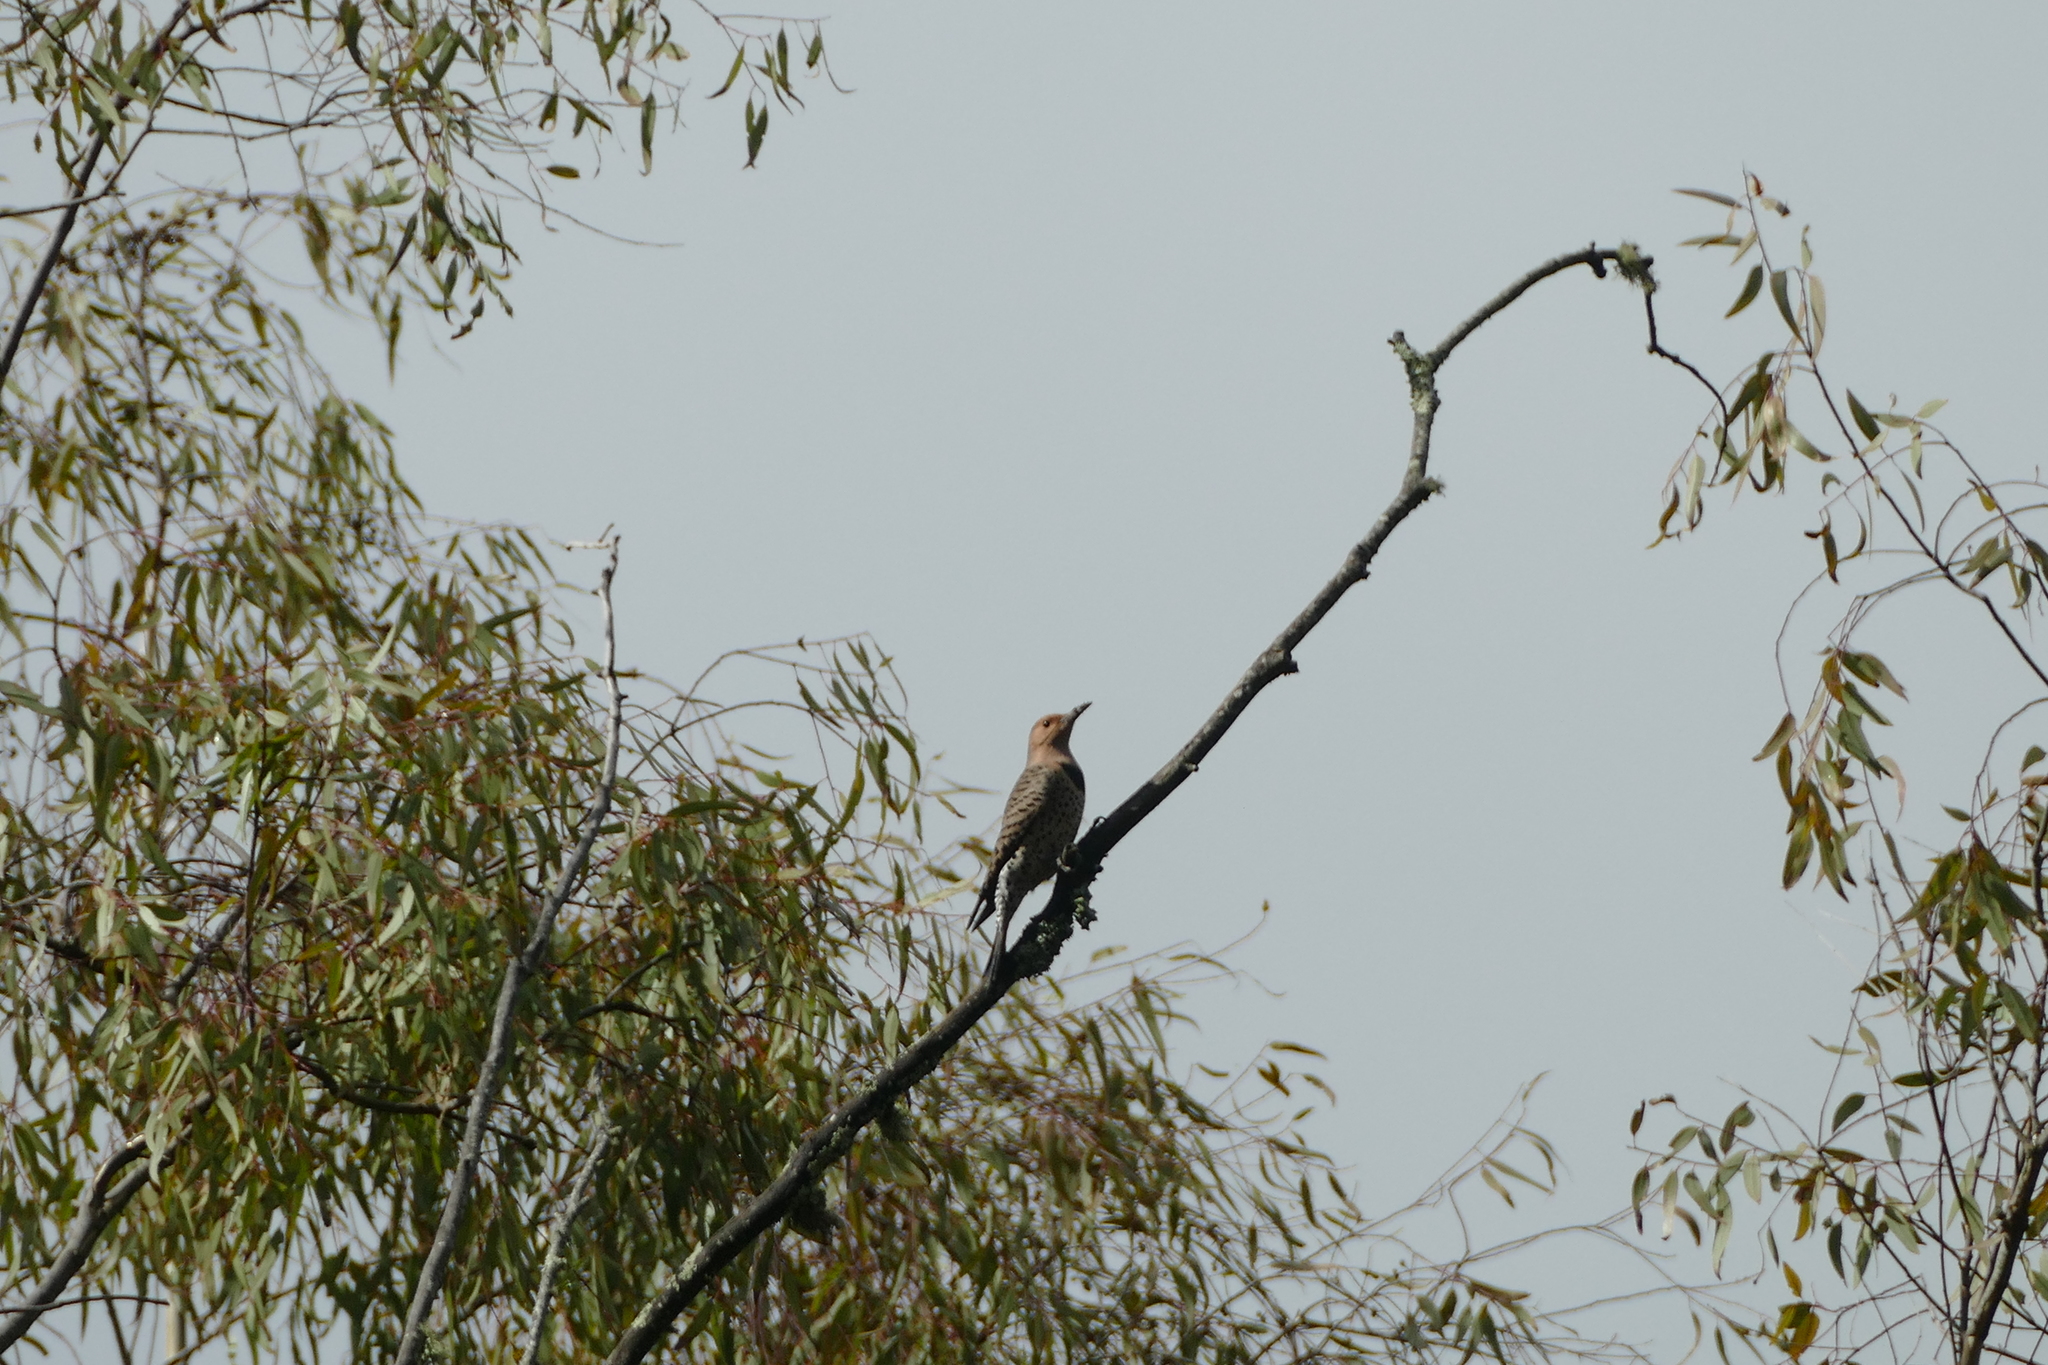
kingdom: Animalia
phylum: Chordata
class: Aves
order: Piciformes
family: Picidae
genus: Colaptes
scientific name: Colaptes auratus
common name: Northern flicker
